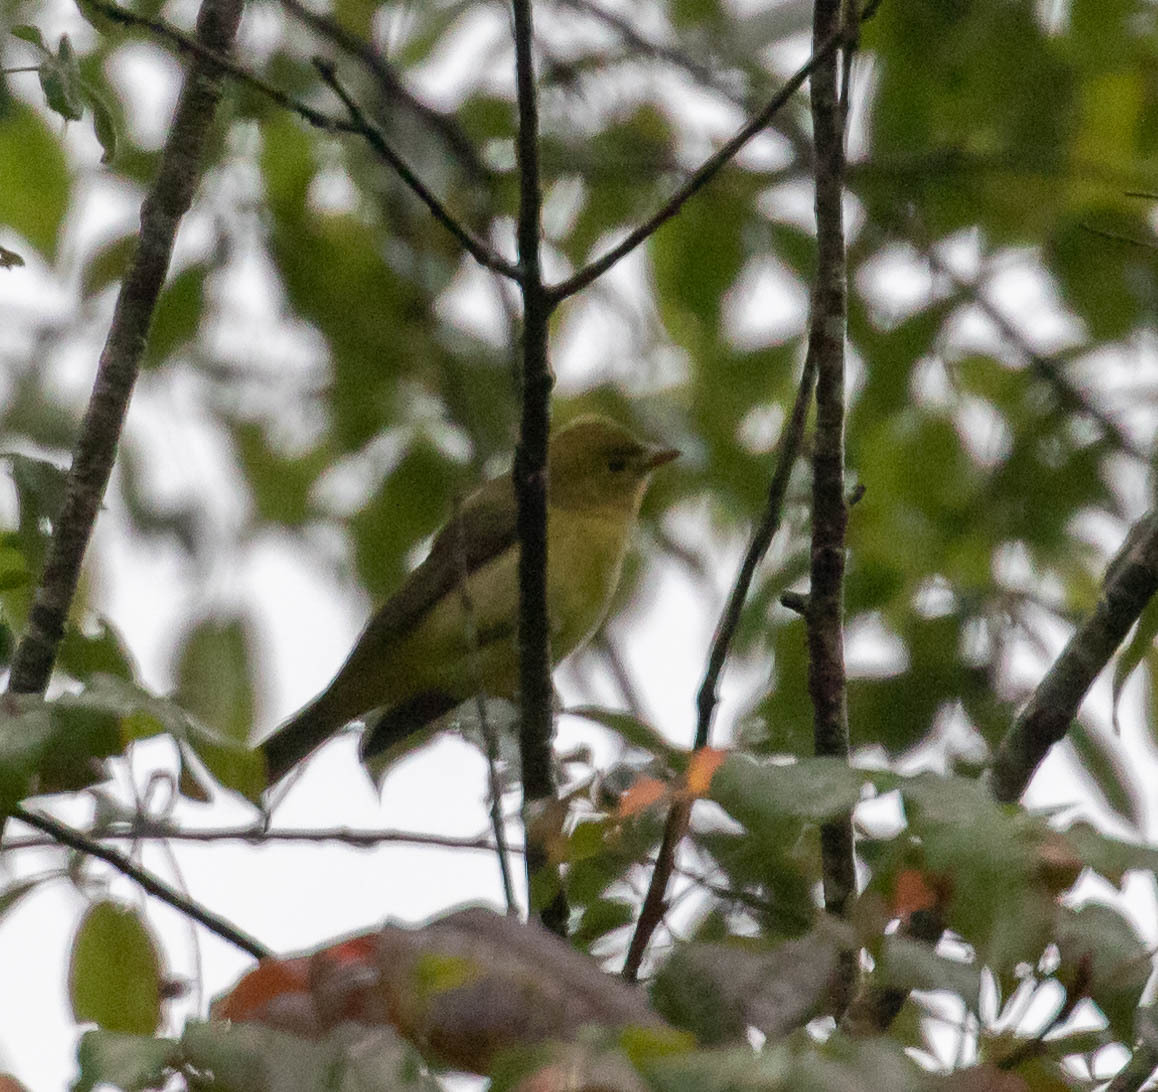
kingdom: Animalia
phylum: Chordata
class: Aves
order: Passeriformes
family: Cardinalidae
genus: Piranga
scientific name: Piranga olivacea
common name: Scarlet tanager
